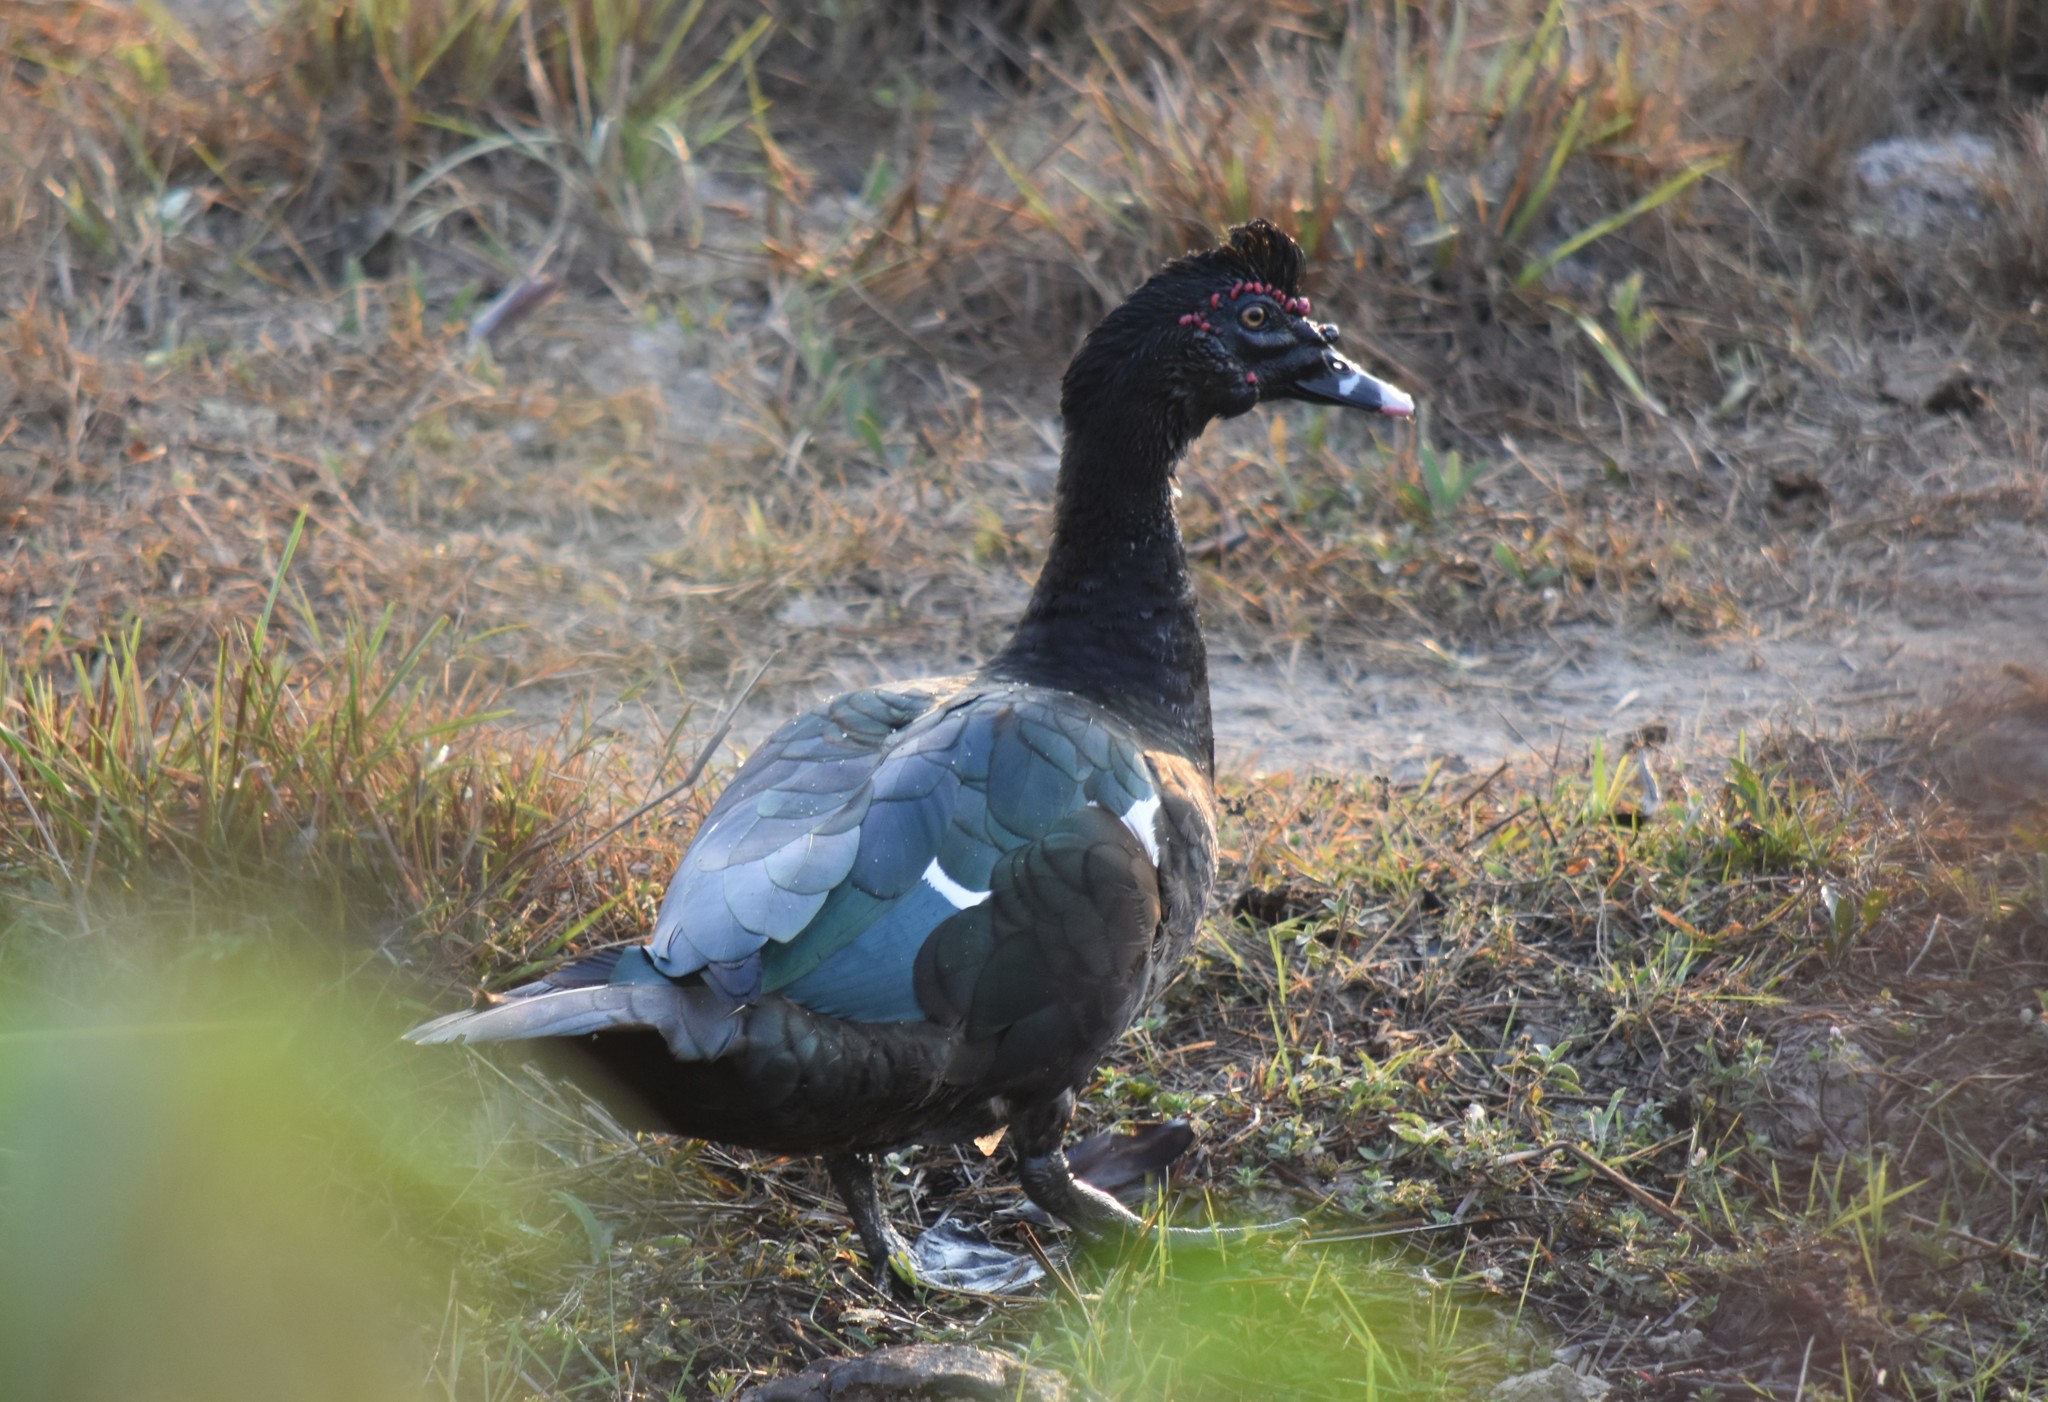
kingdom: Animalia
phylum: Chordata
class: Aves
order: Anseriformes
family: Anatidae
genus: Cairina
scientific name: Cairina moschata
